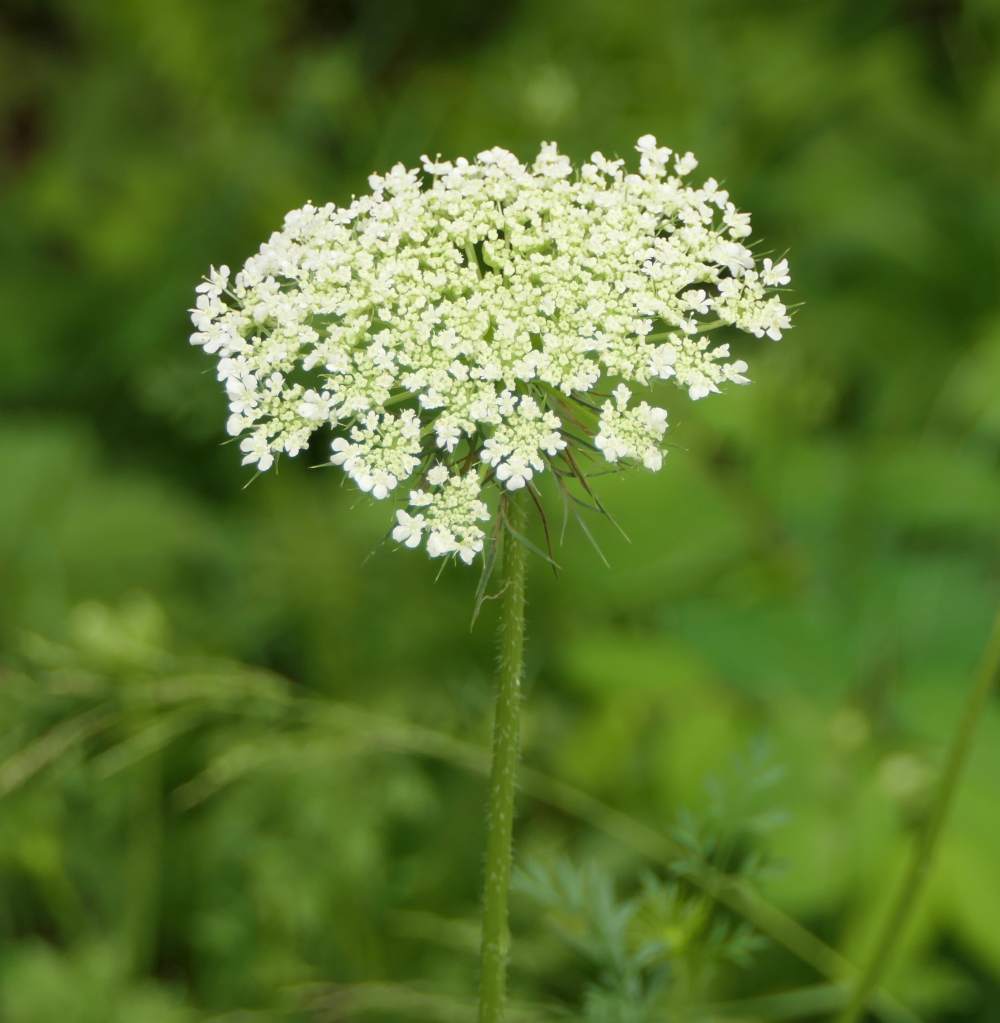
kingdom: Plantae
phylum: Tracheophyta
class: Magnoliopsida
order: Apiales
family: Apiaceae
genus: Daucus
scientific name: Daucus carota
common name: Wild carrot
